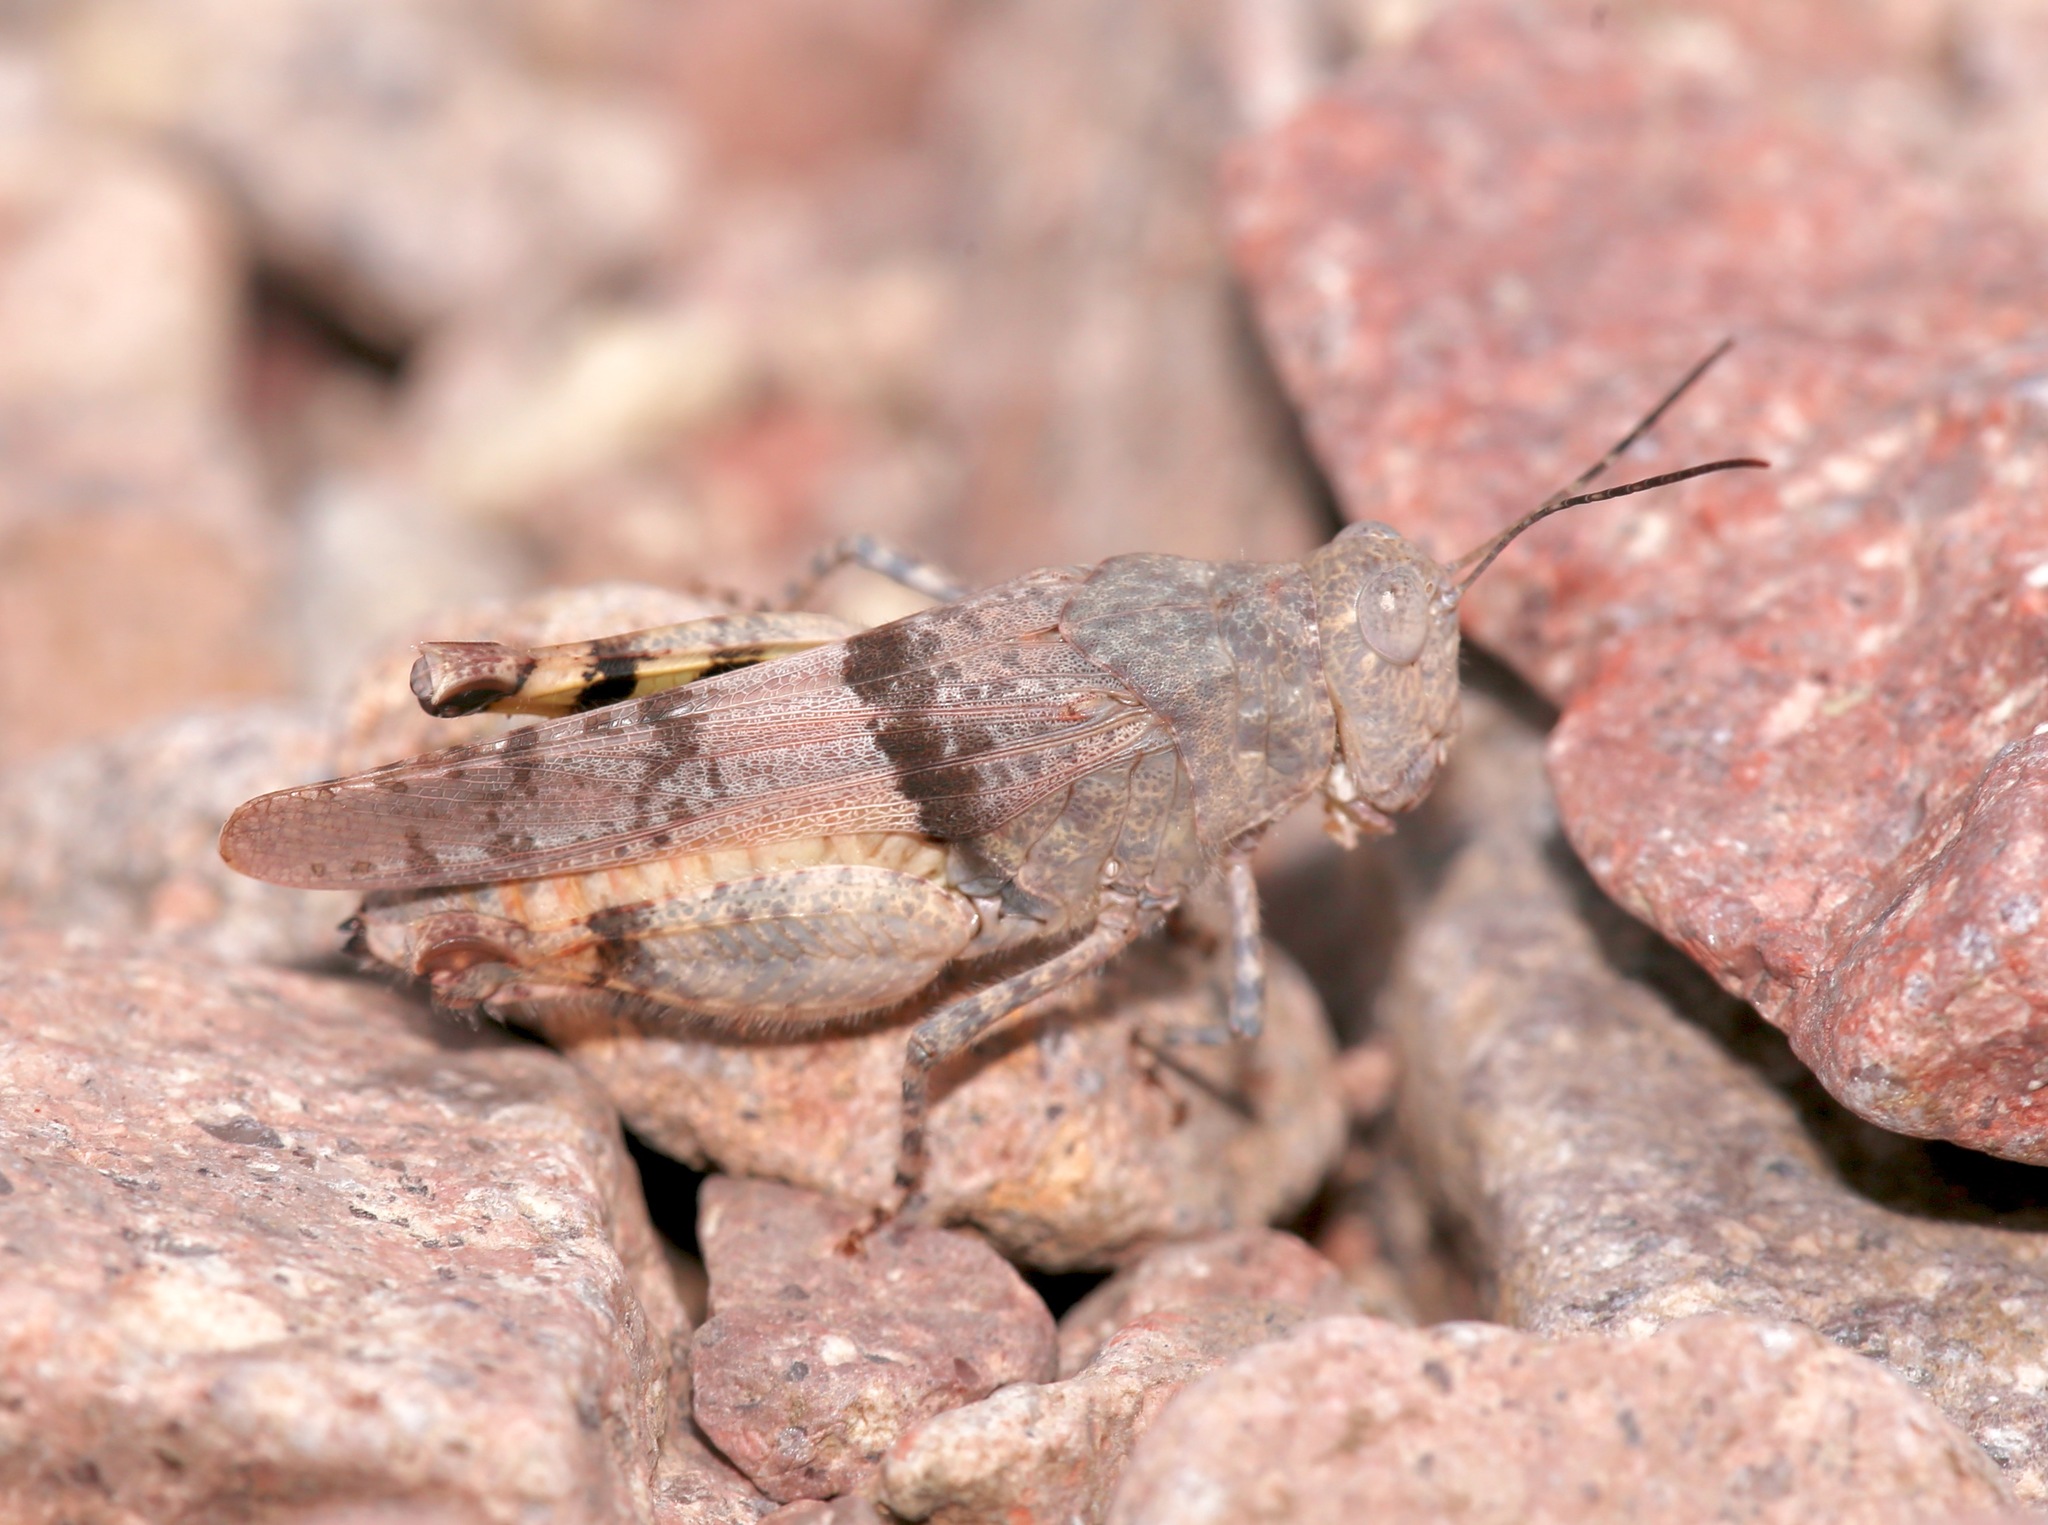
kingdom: Animalia
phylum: Arthropoda
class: Insecta
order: Orthoptera
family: Acrididae
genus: Heliastus
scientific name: Heliastus benjamini
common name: Arroyo grasshopper
